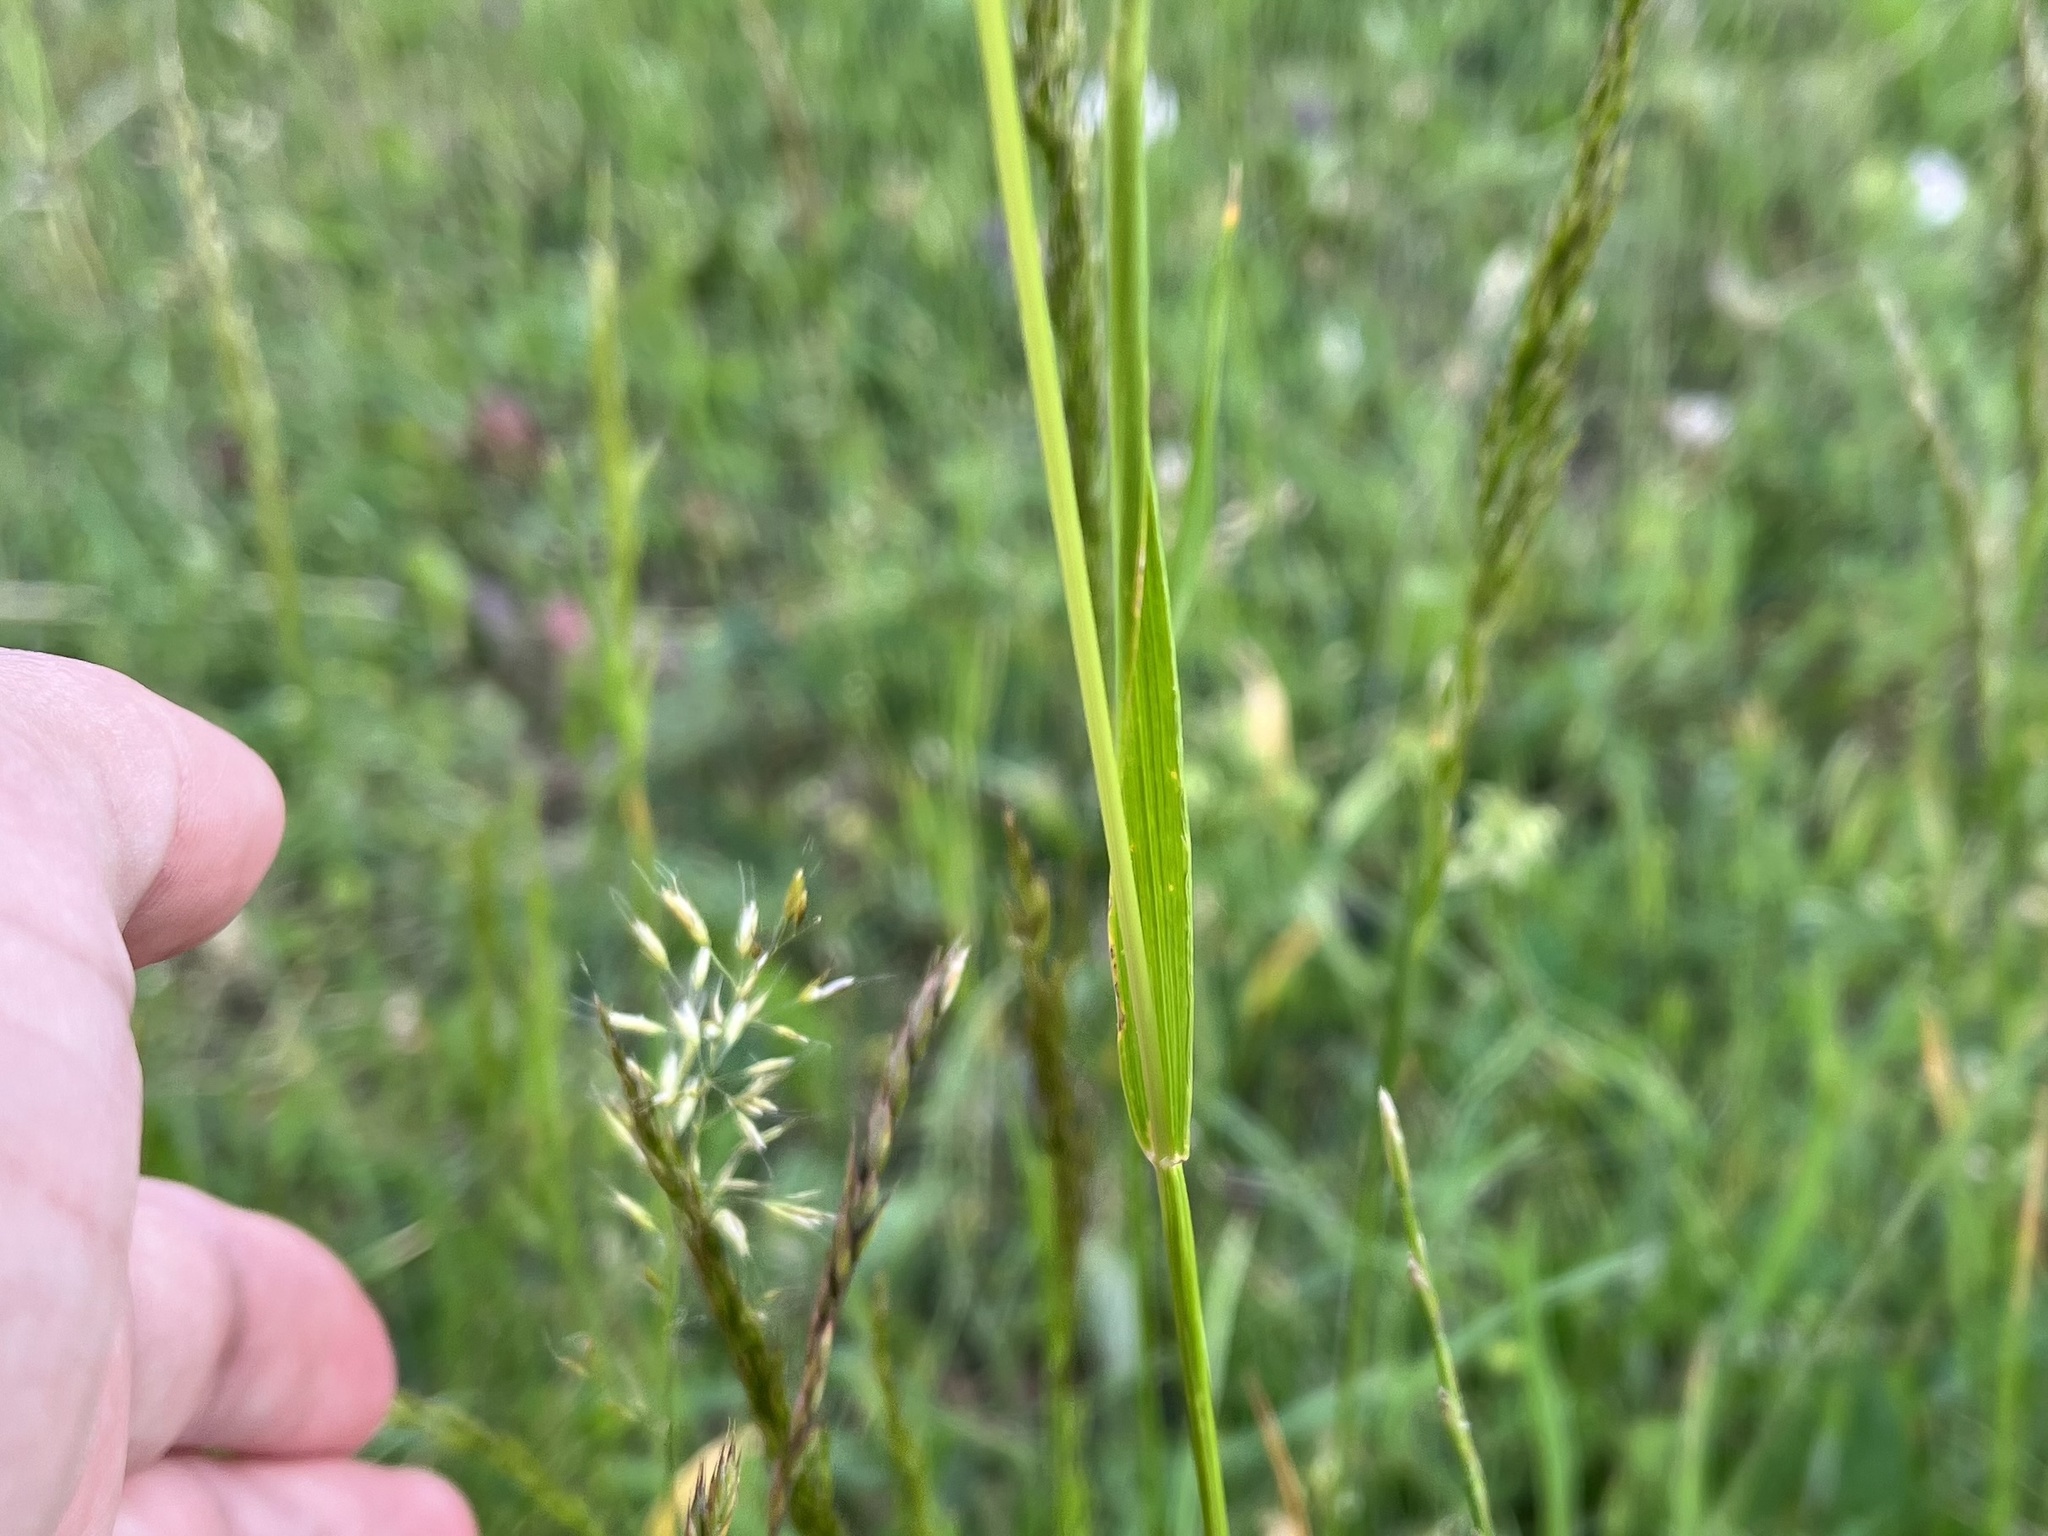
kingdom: Plantae
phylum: Tracheophyta
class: Liliopsida
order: Poales
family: Poaceae
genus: Trisetum
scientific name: Trisetum flavescens
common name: Yellow oat-grass
